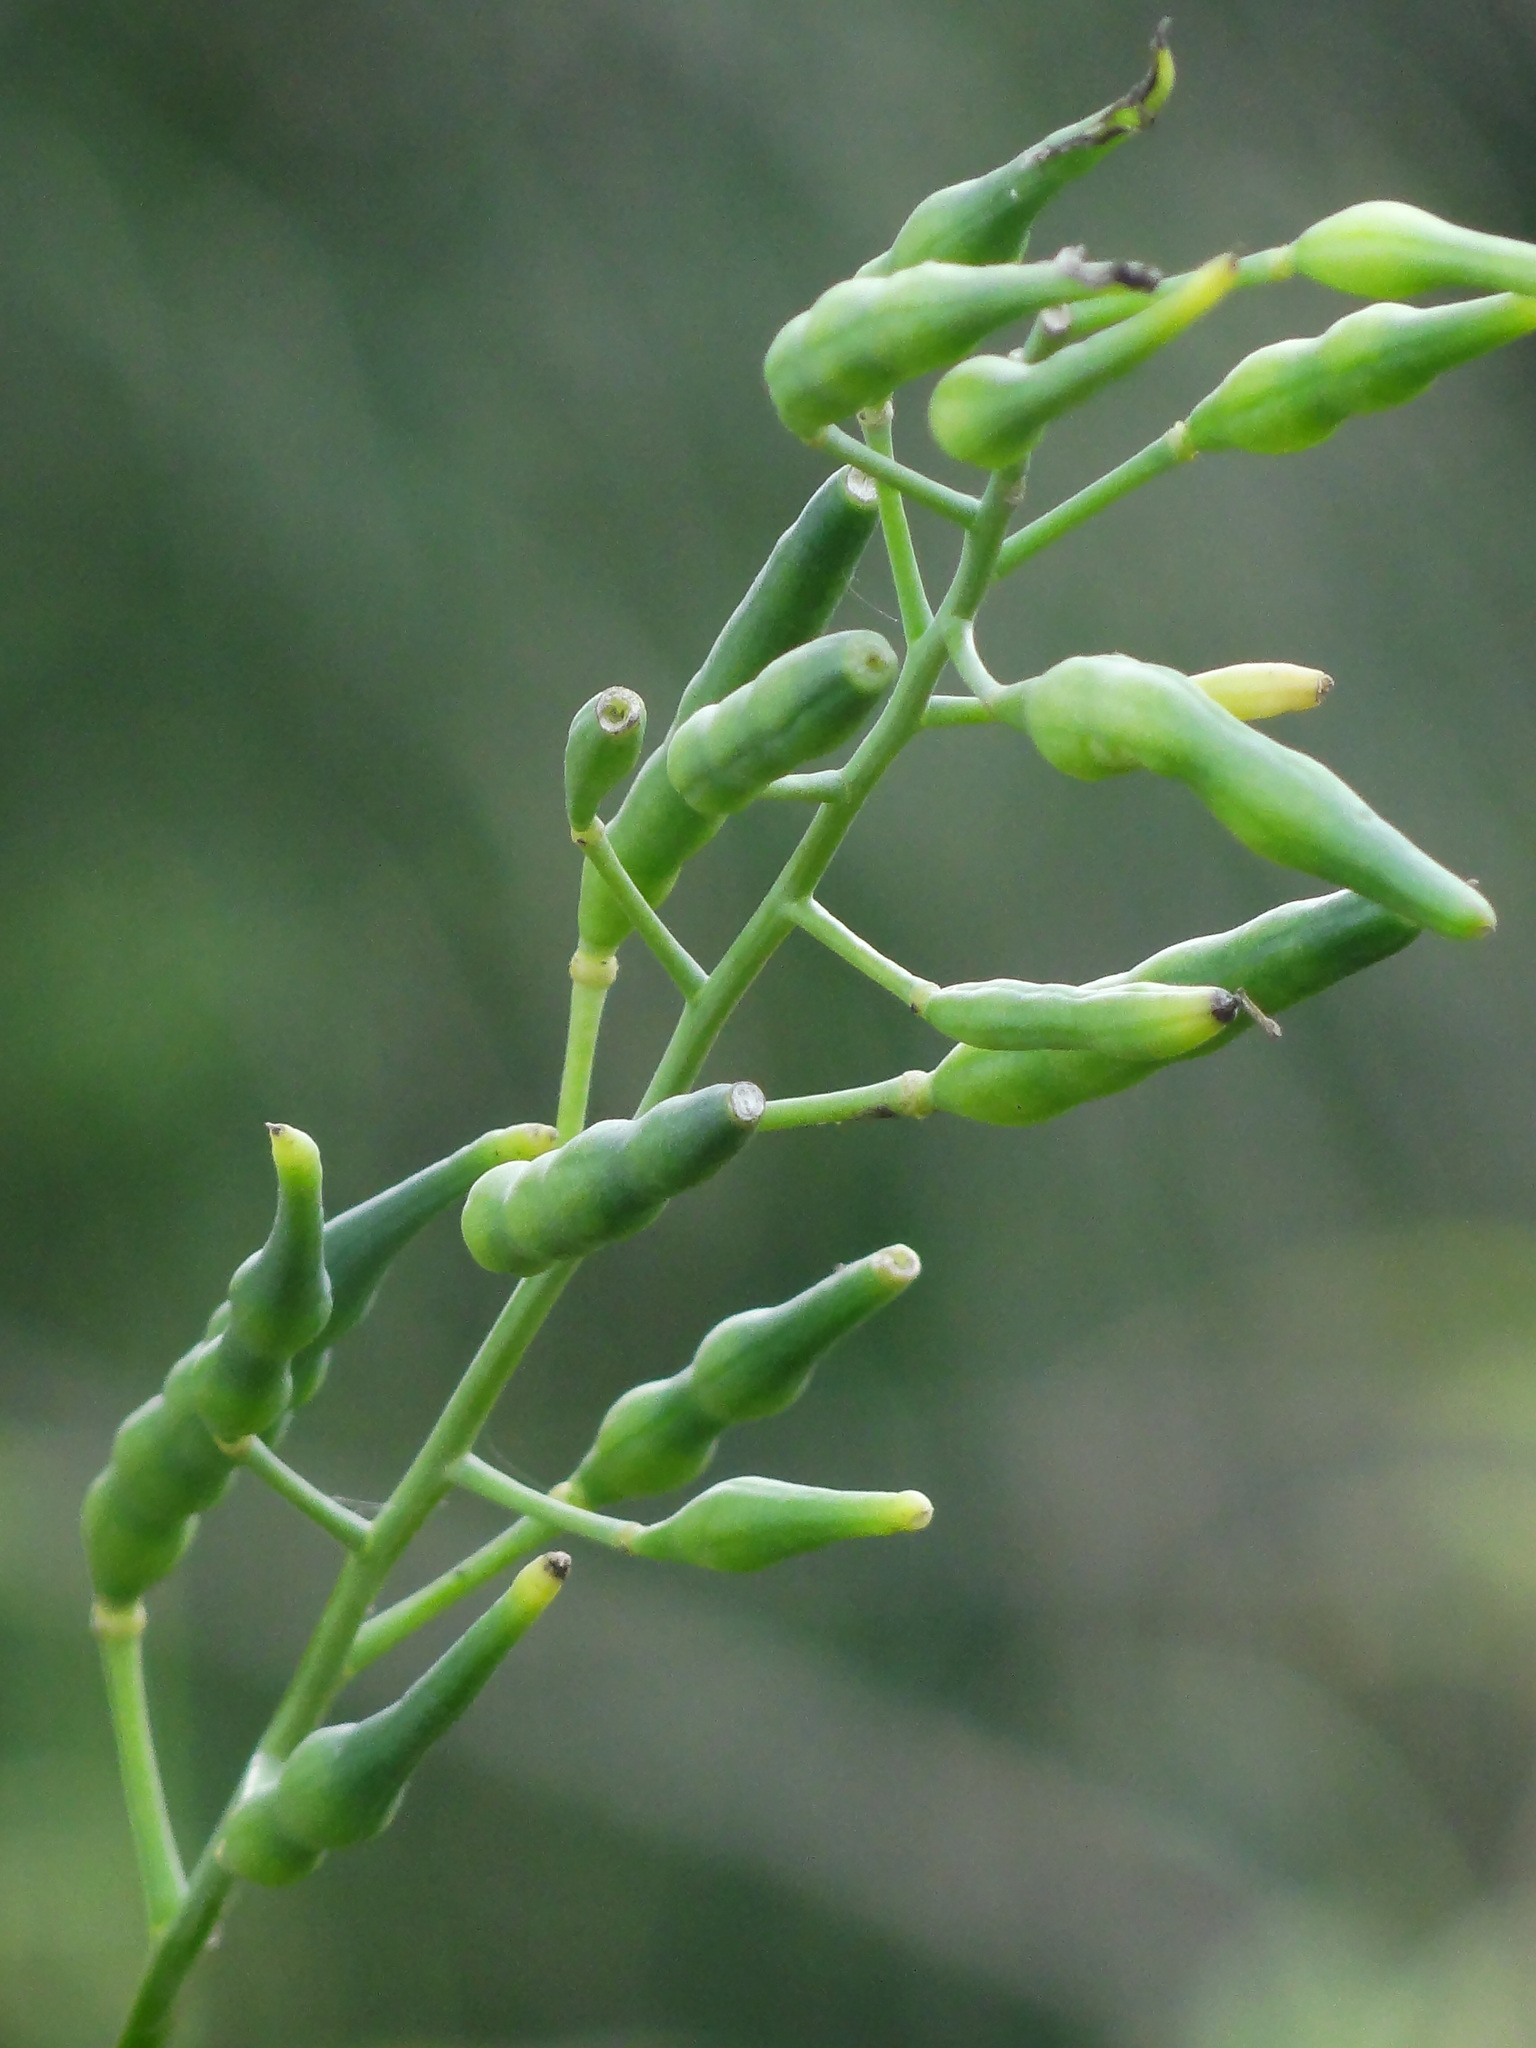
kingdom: Plantae
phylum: Tracheophyta
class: Magnoliopsida
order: Brassicales
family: Brassicaceae
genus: Raphanus
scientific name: Raphanus sativus
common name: Cultivated radish
